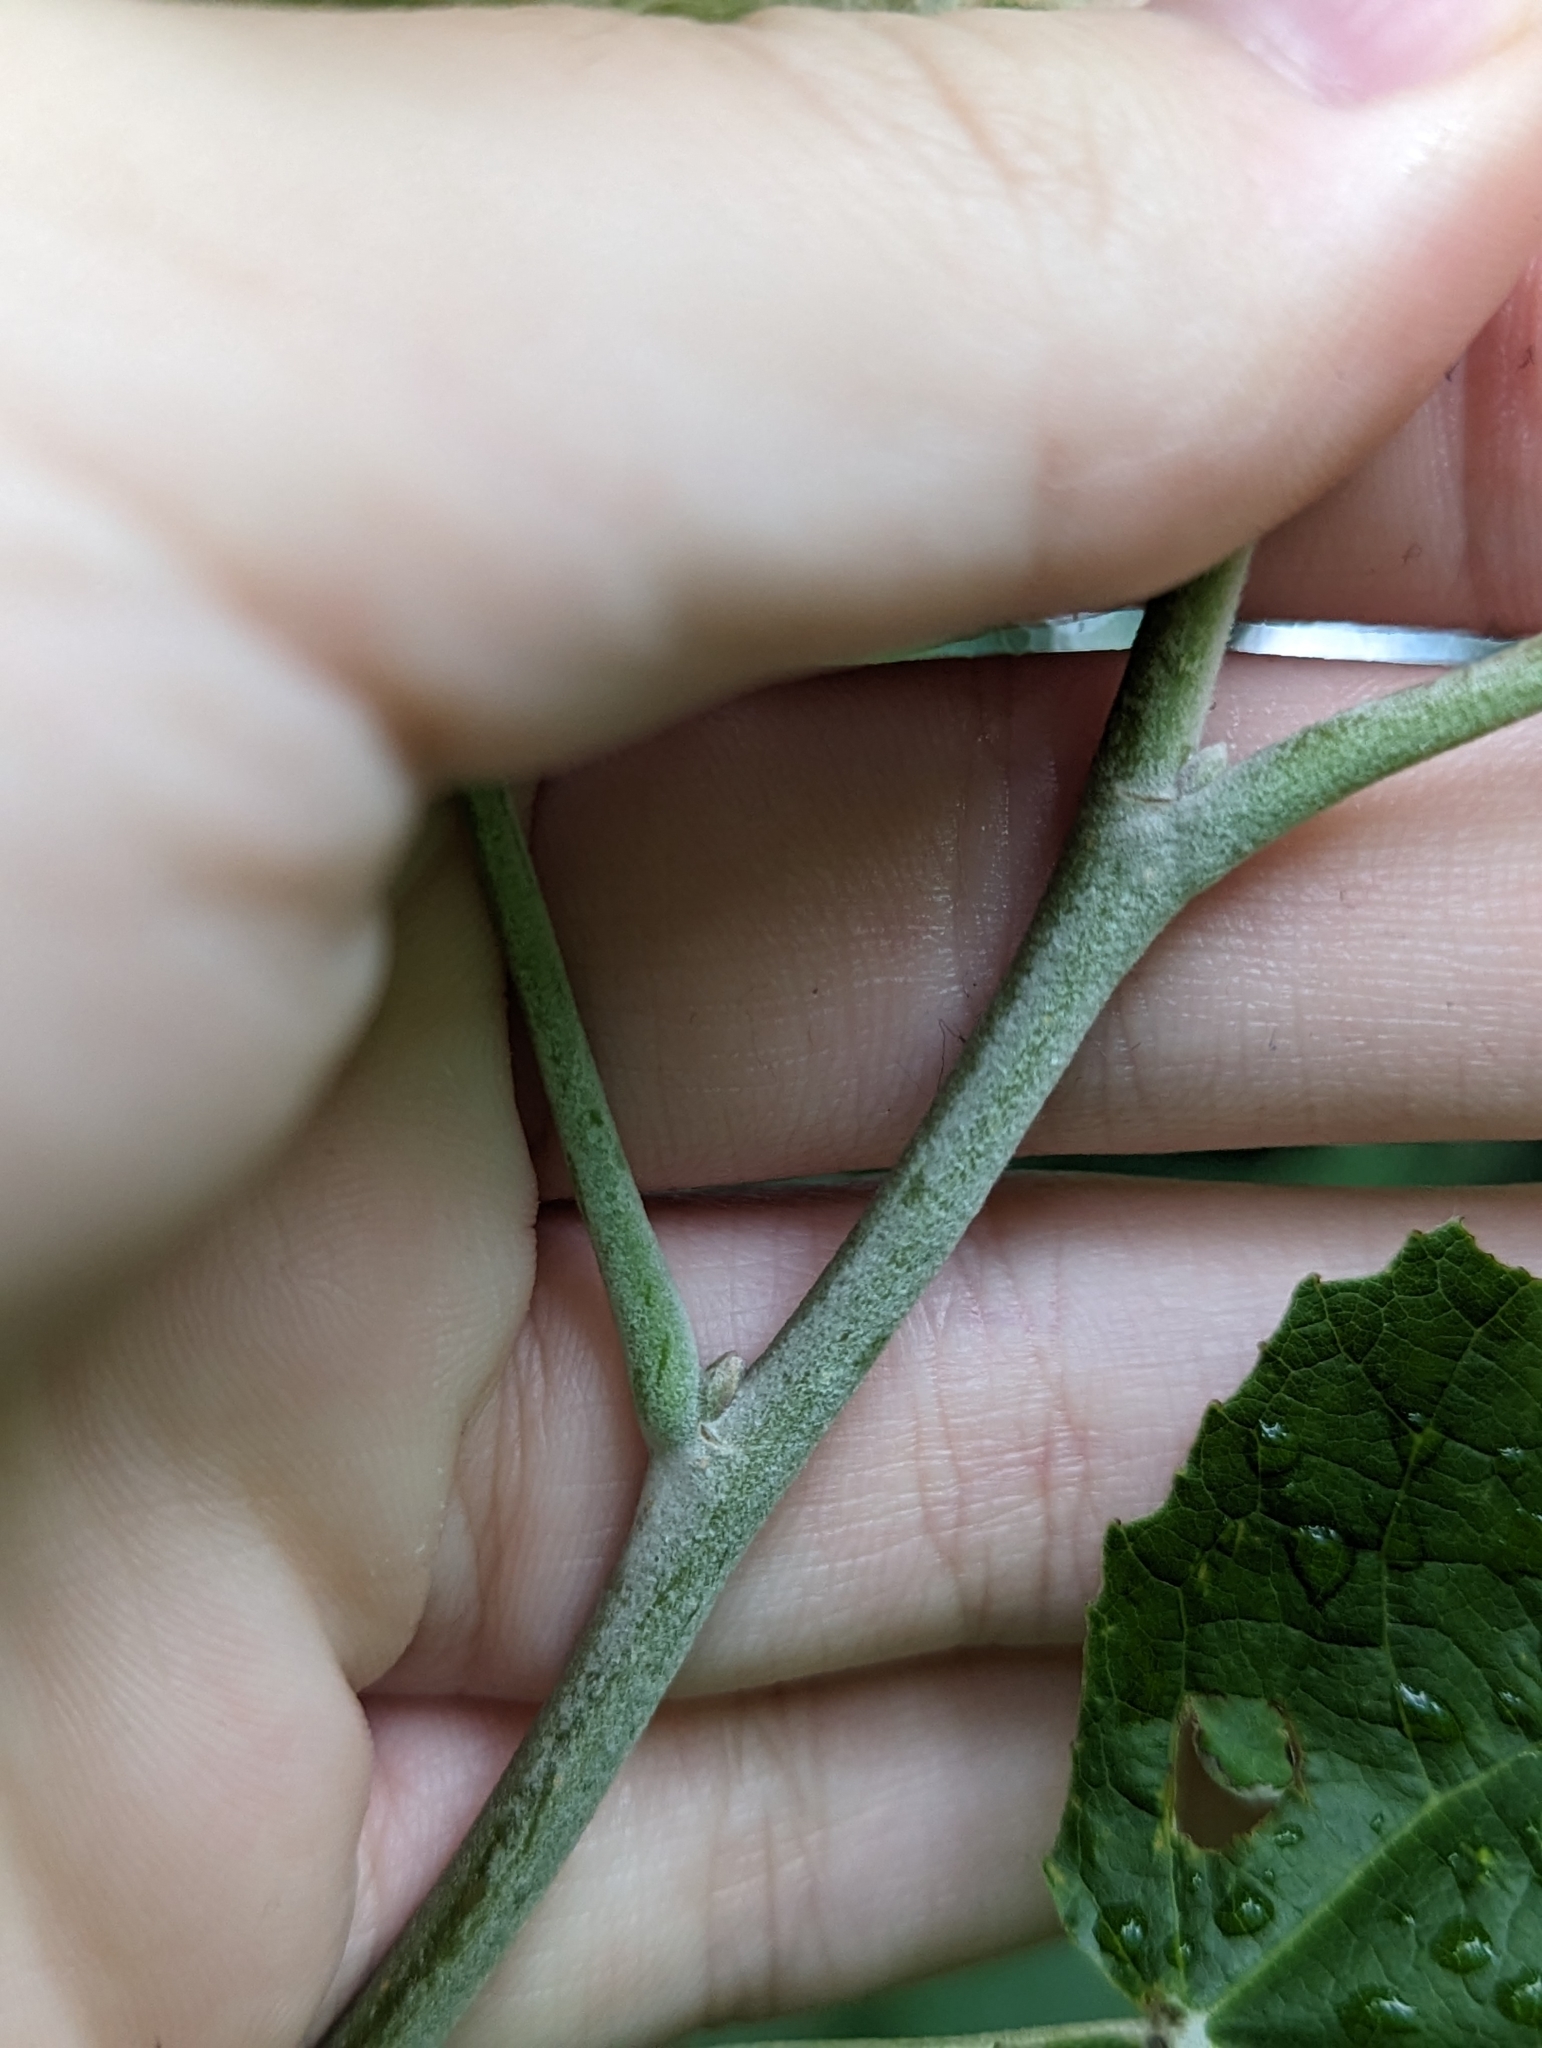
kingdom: Plantae
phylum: Tracheophyta
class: Magnoliopsida
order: Malpighiales
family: Salicaceae
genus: Populus
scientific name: Populus alba
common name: White poplar
